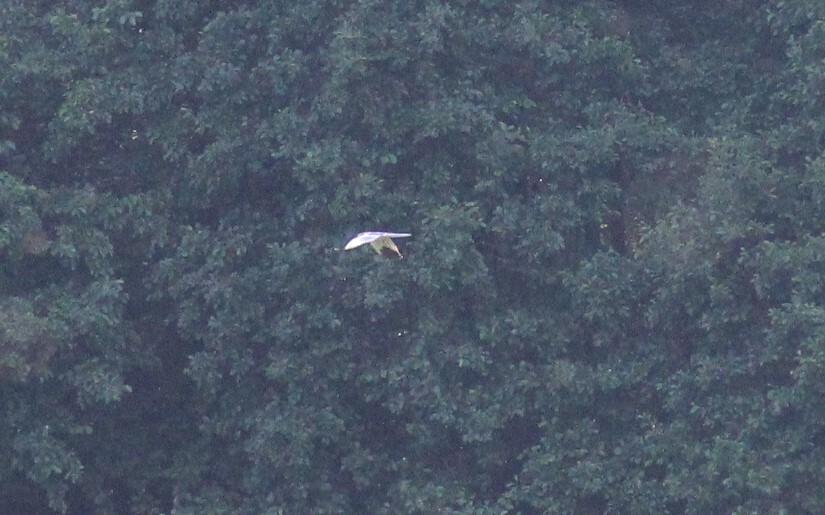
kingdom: Animalia
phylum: Chordata
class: Aves
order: Accipitriformes
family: Accipitridae
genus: Circus
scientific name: Circus pygargus
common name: Montagu's harrier
